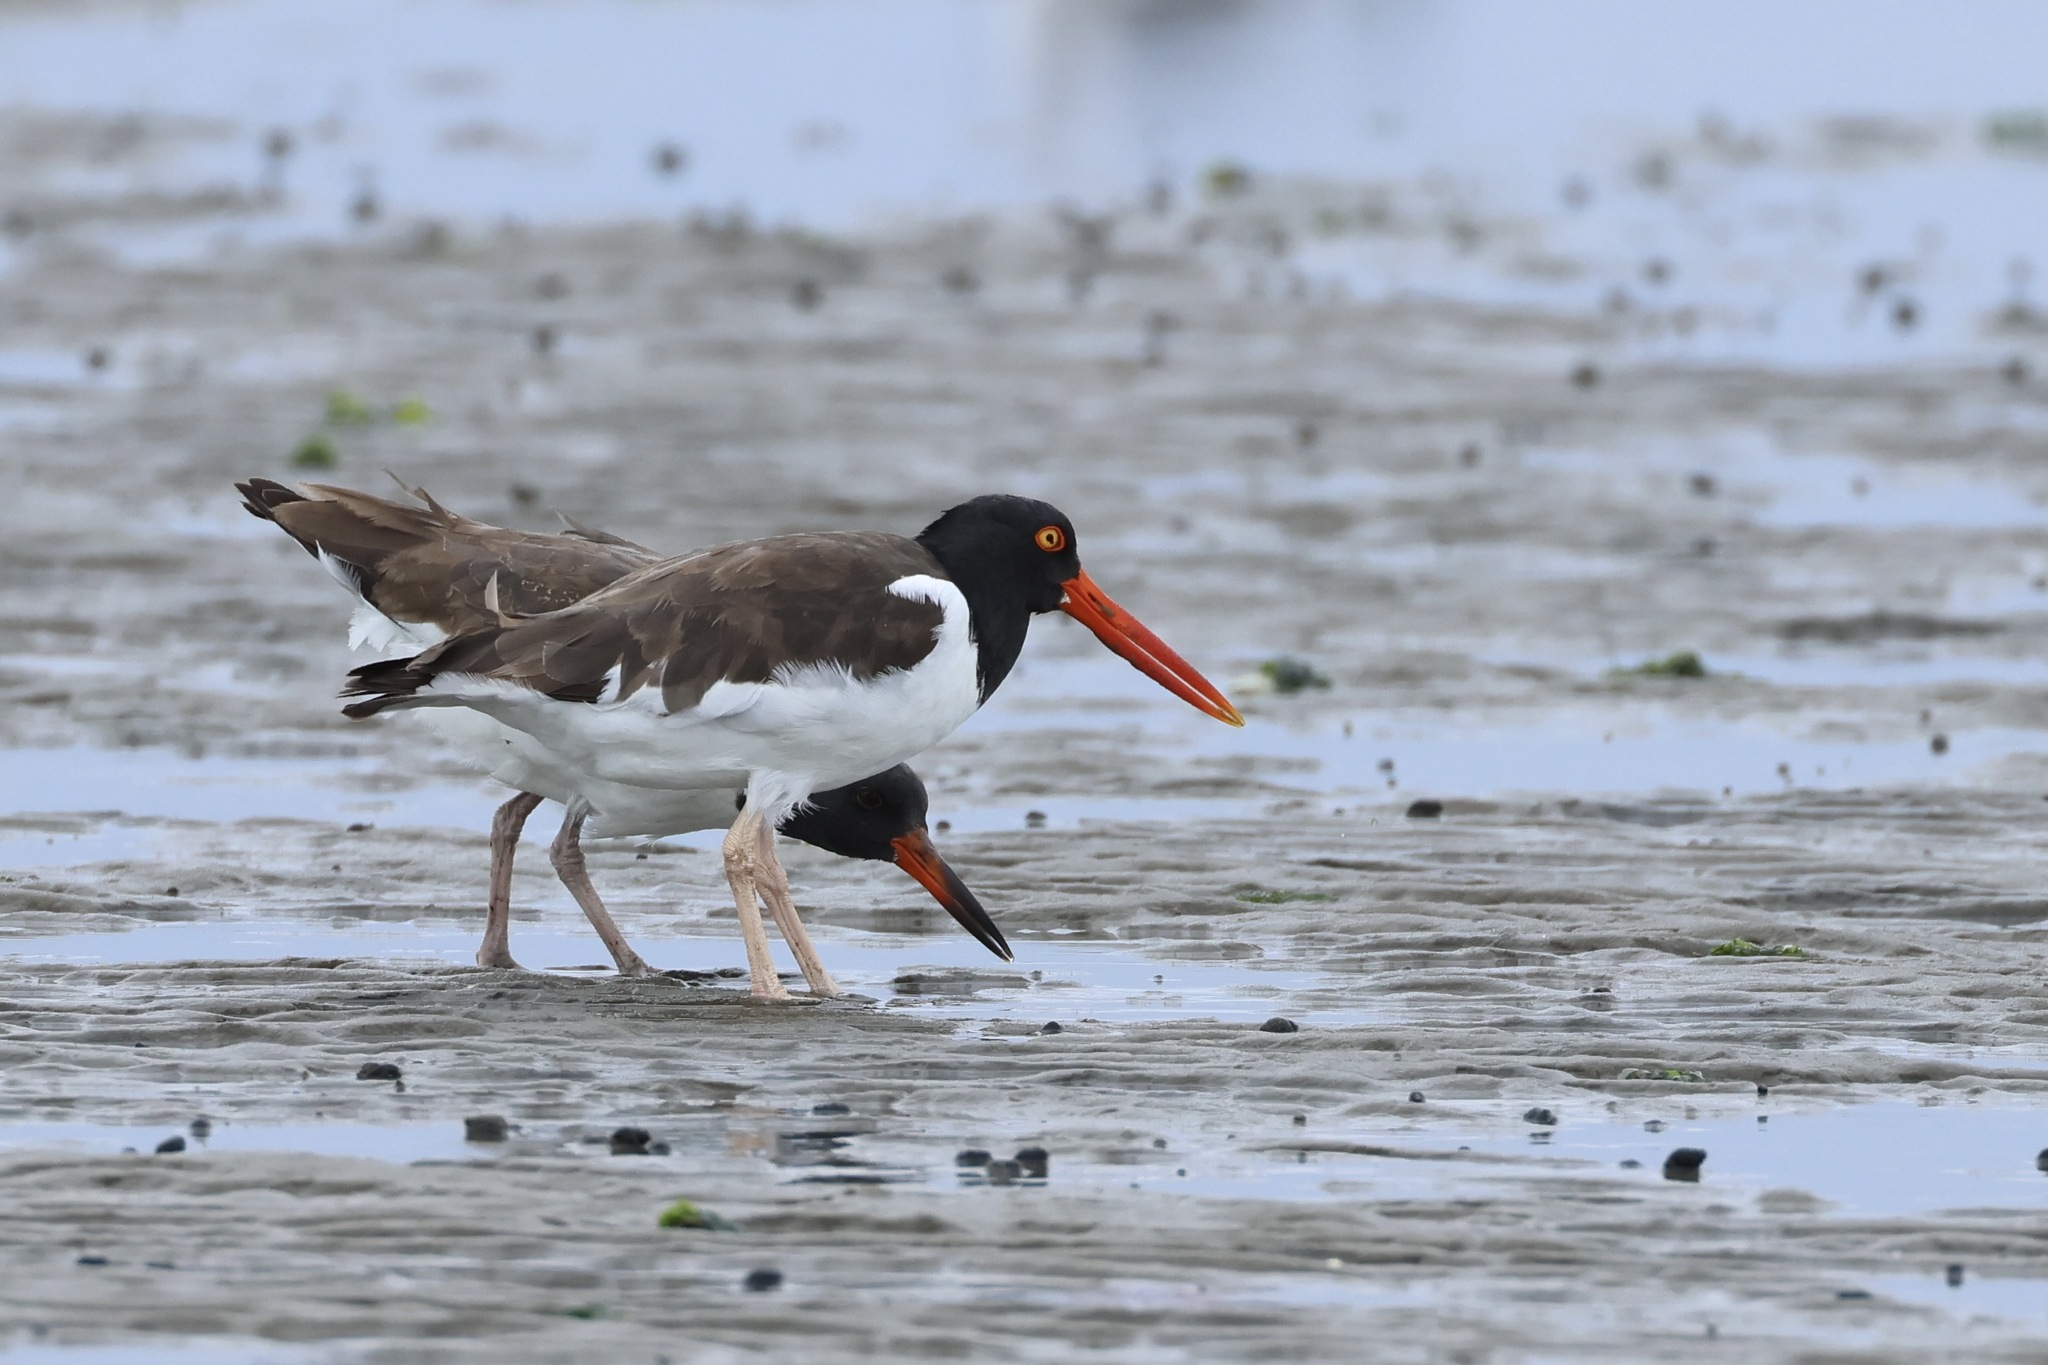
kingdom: Animalia
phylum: Chordata
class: Aves
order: Charadriiformes
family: Haematopodidae
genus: Haematopus
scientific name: Haematopus palliatus
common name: American oystercatcher
